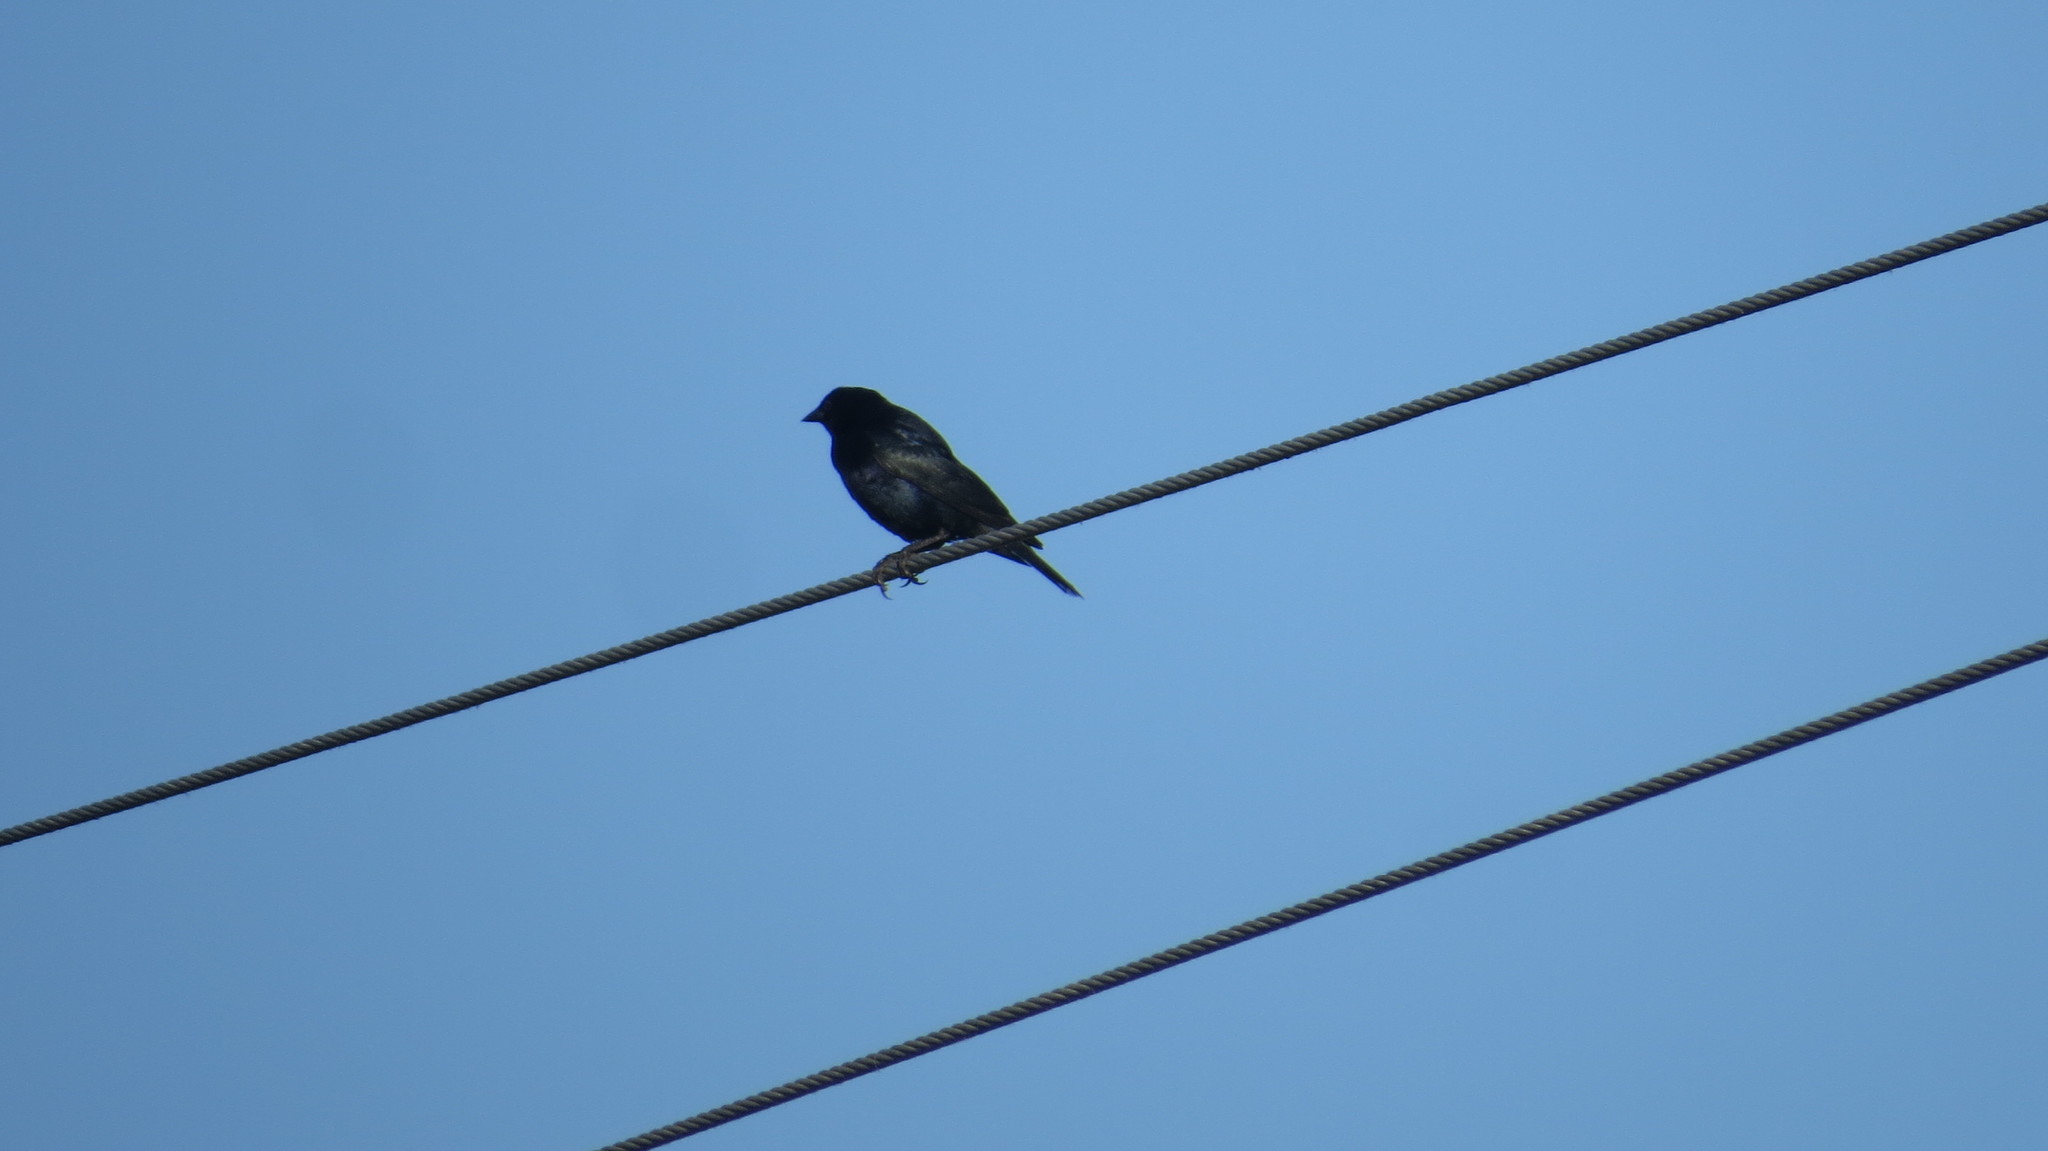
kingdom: Animalia
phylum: Chordata
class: Aves
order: Passeriformes
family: Icteridae
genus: Molothrus
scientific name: Molothrus bonariensis
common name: Shiny cowbird
